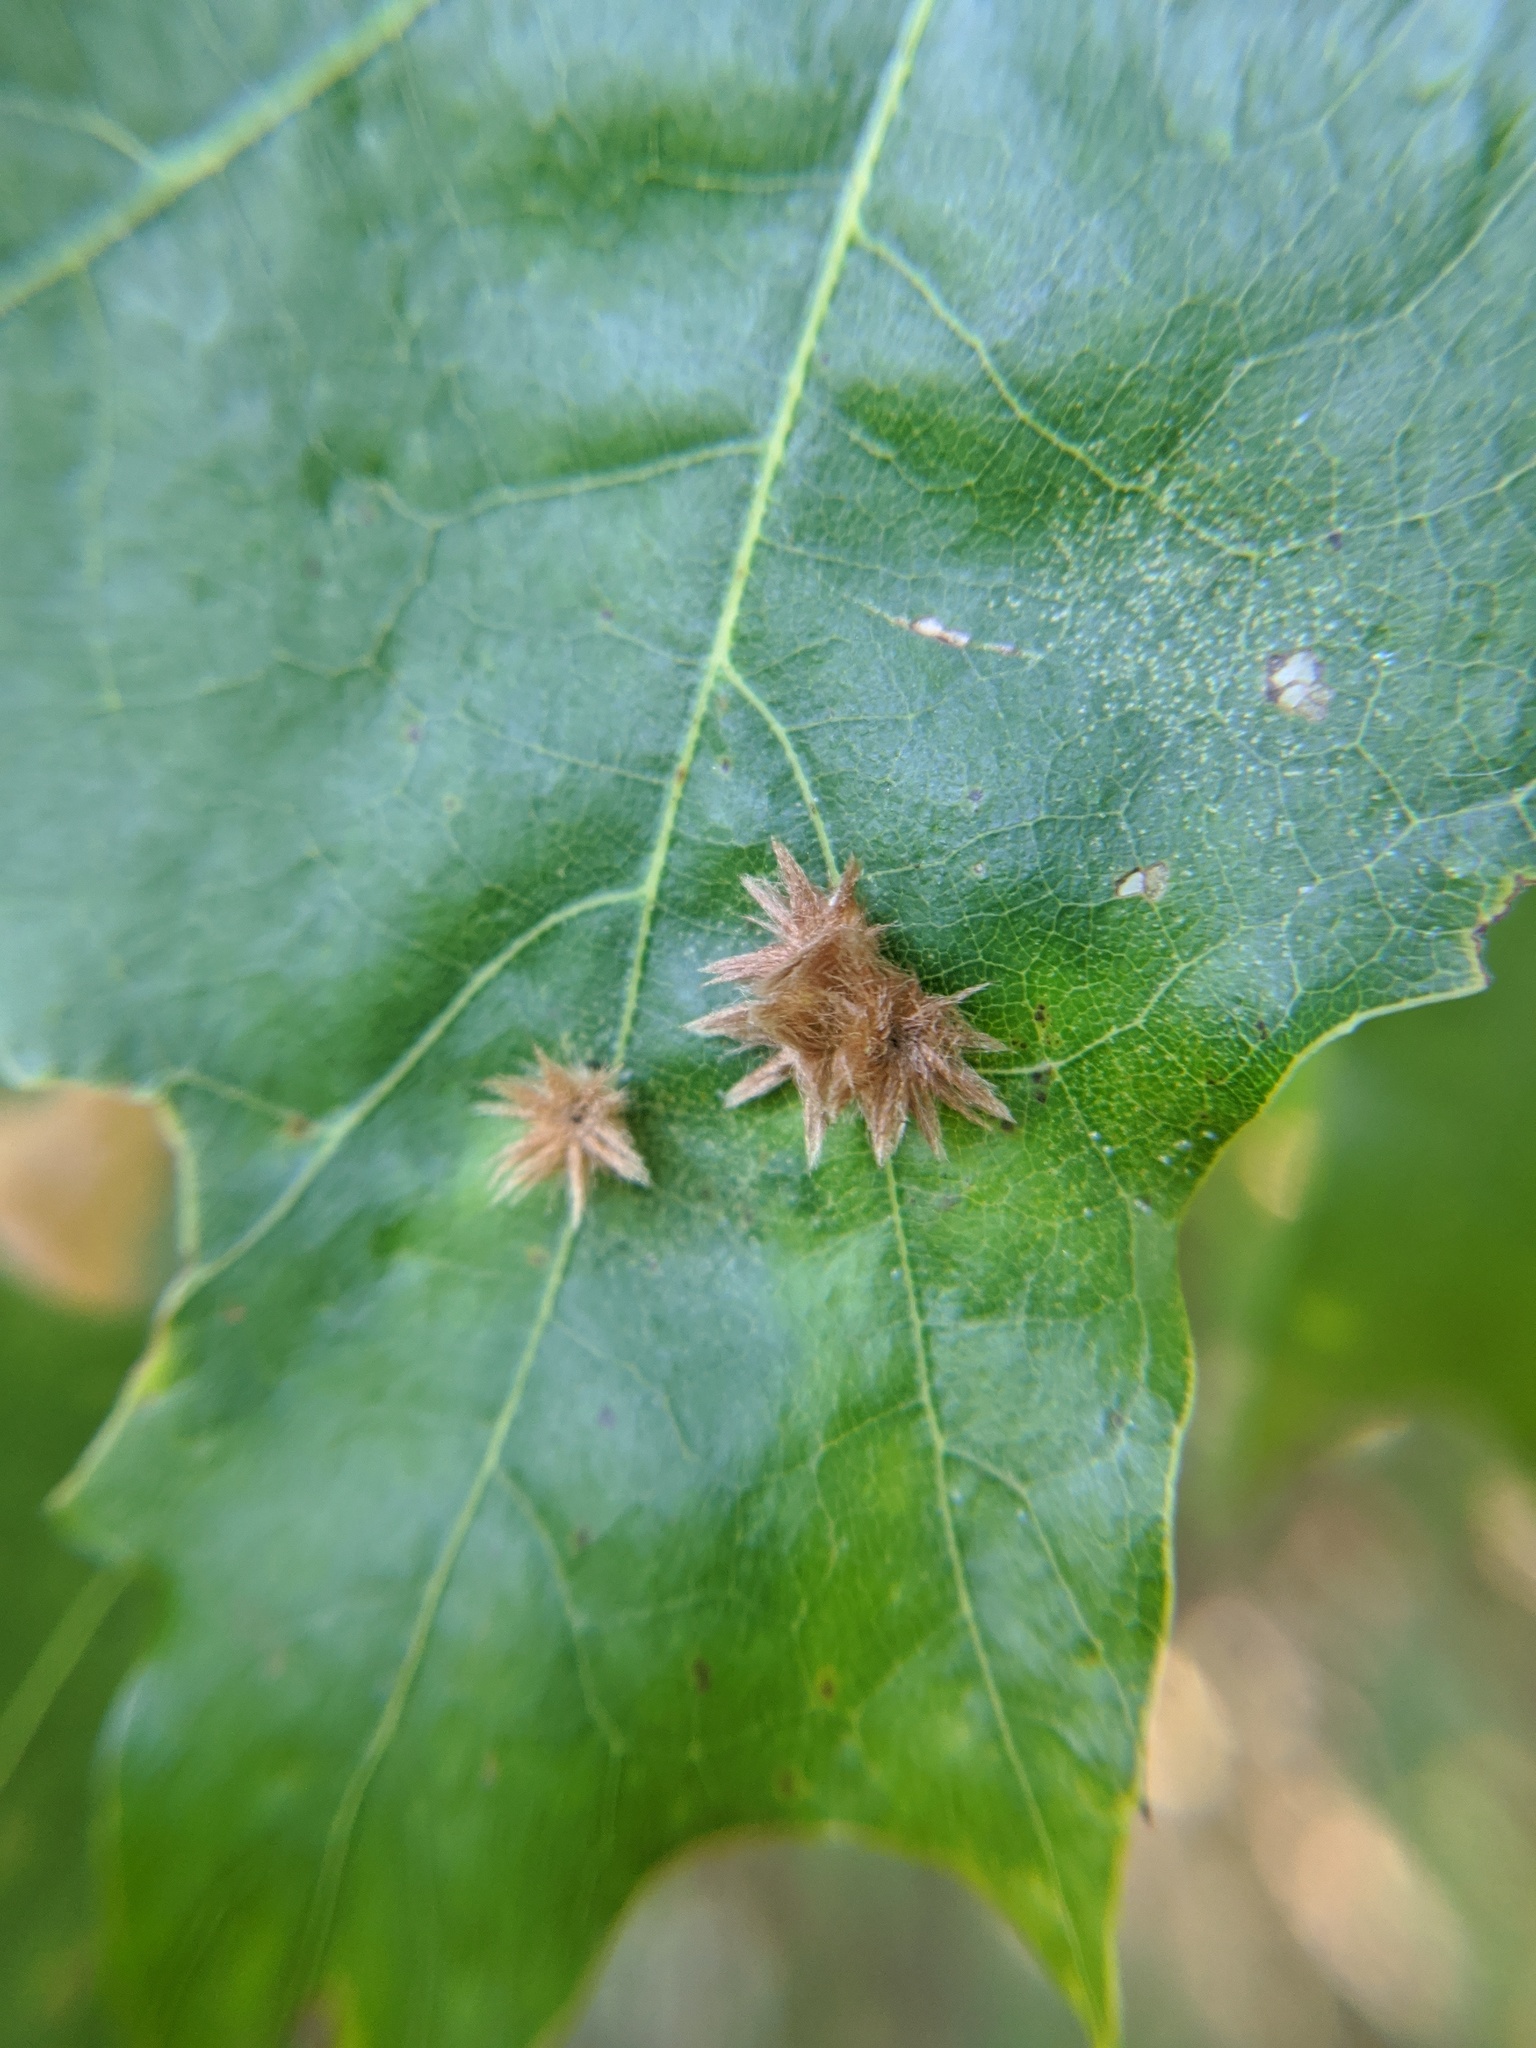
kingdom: Animalia
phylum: Arthropoda
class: Insecta
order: Hymenoptera
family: Cynipidae
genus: Callirhytis
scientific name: Callirhytis
